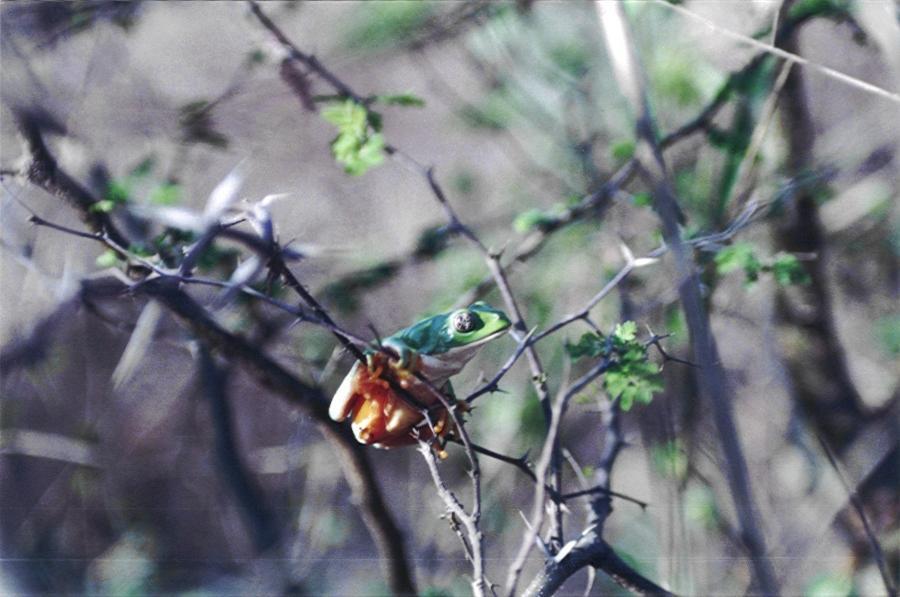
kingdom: Animalia
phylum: Chordata
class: Amphibia
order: Anura
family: Phyllomedusidae
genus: Agalychnis
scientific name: Agalychnis dacnicolor
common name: Mexican giant tree frog
